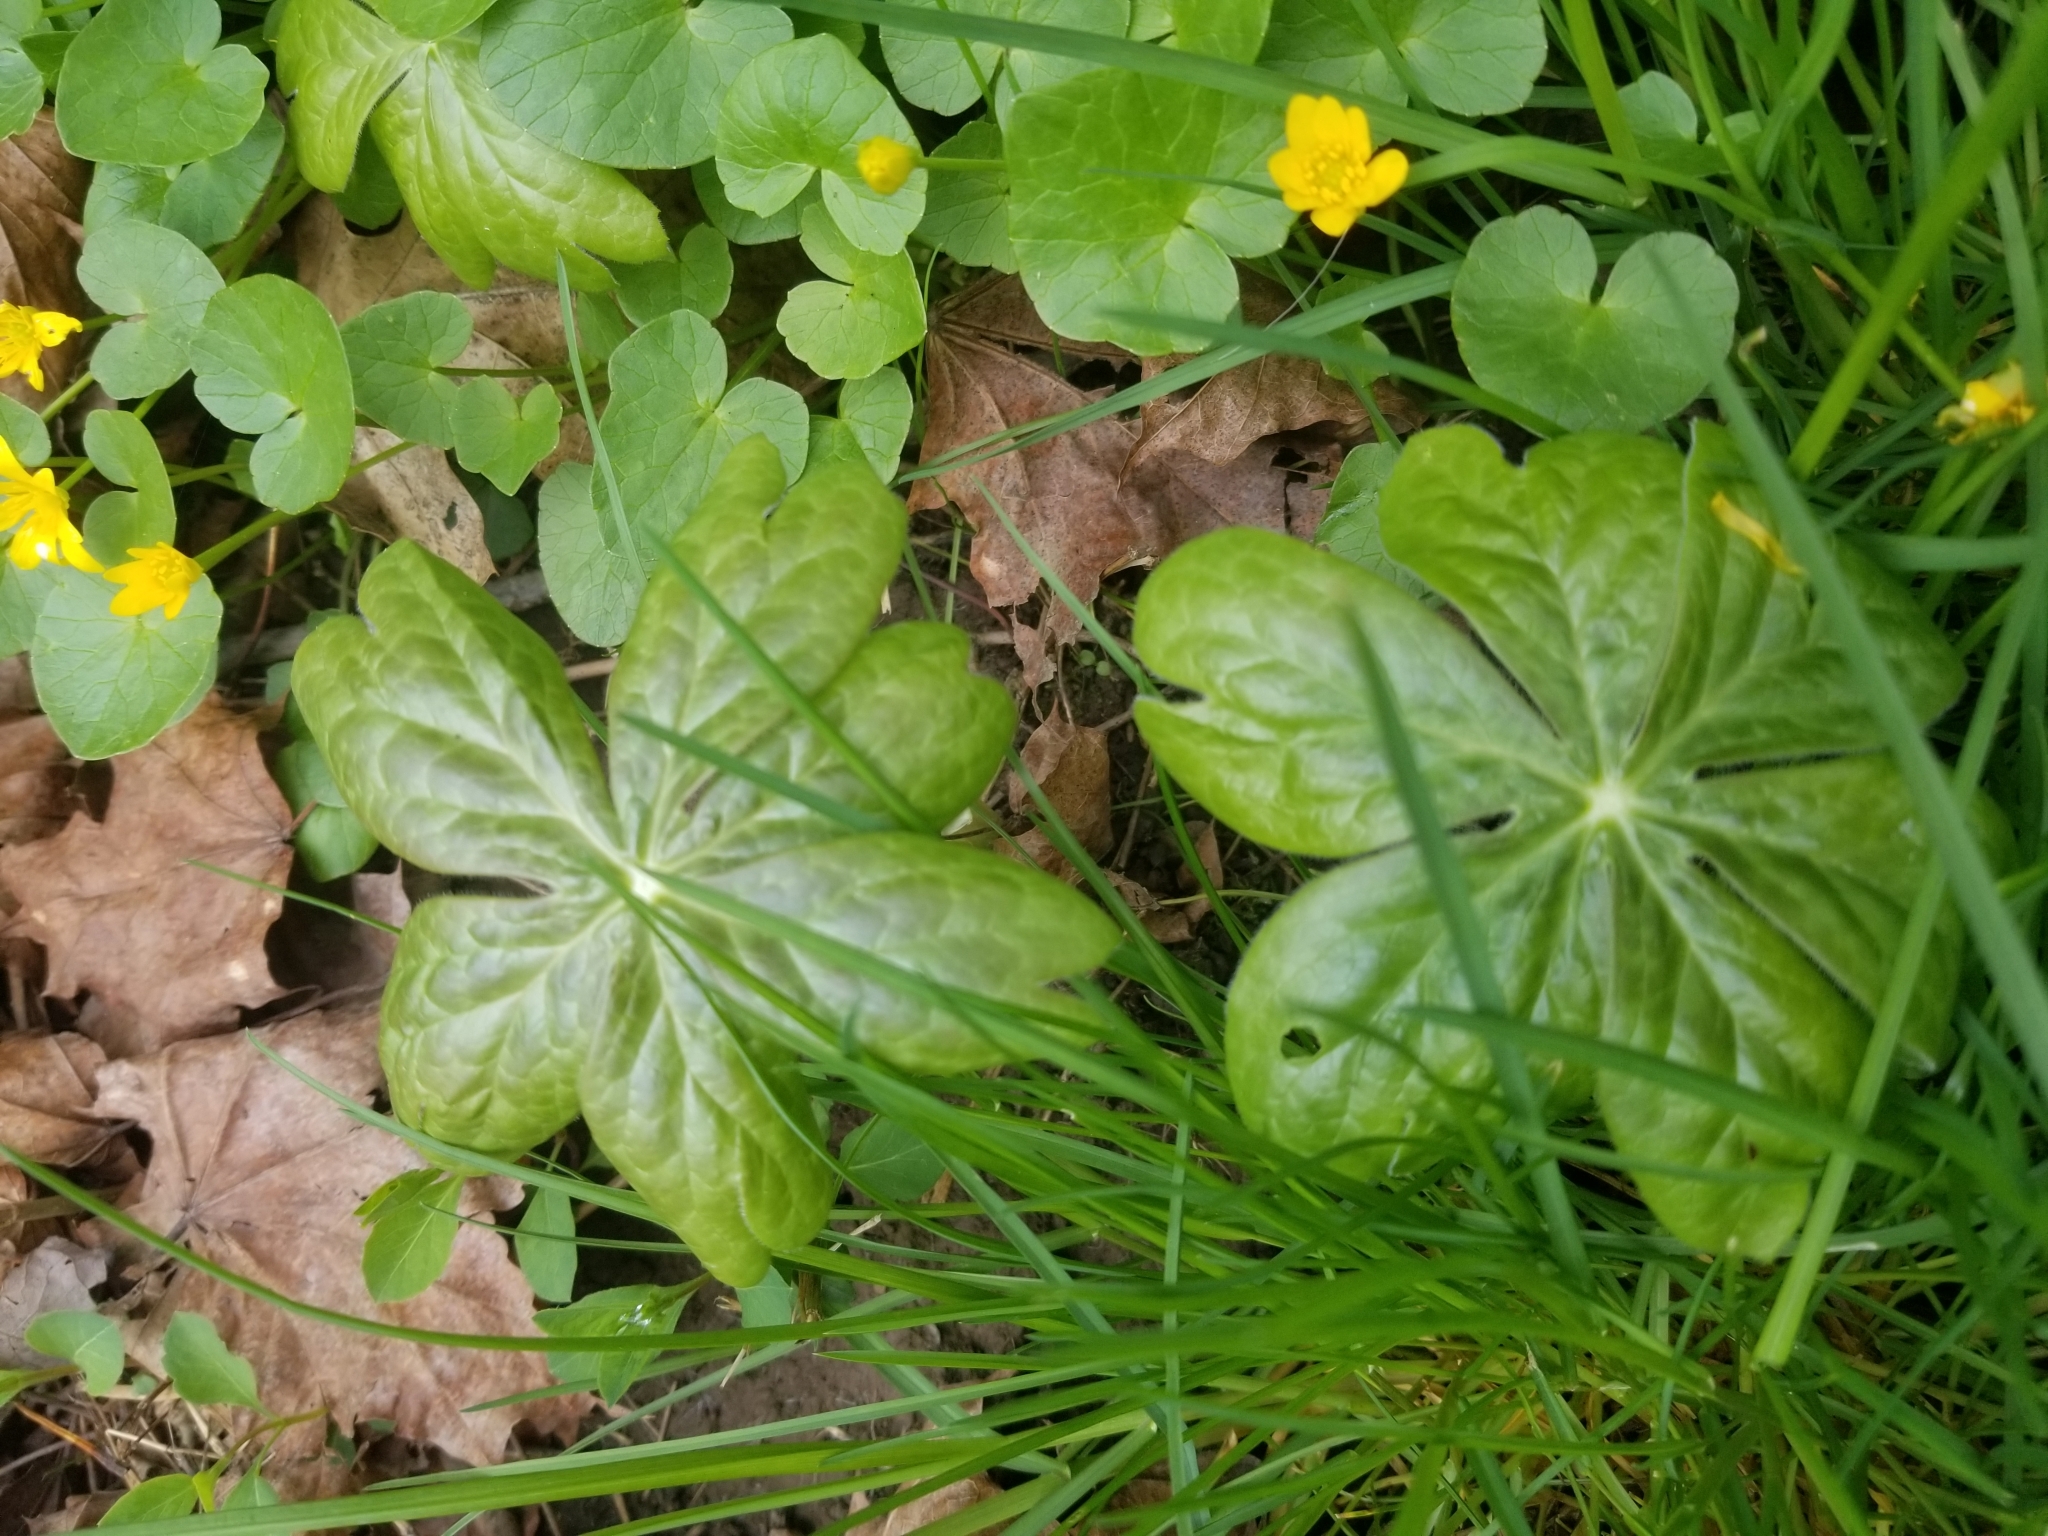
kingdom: Plantae
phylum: Tracheophyta
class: Magnoliopsida
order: Ranunculales
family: Berberidaceae
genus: Podophyllum
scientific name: Podophyllum peltatum
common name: Wild mandrake
